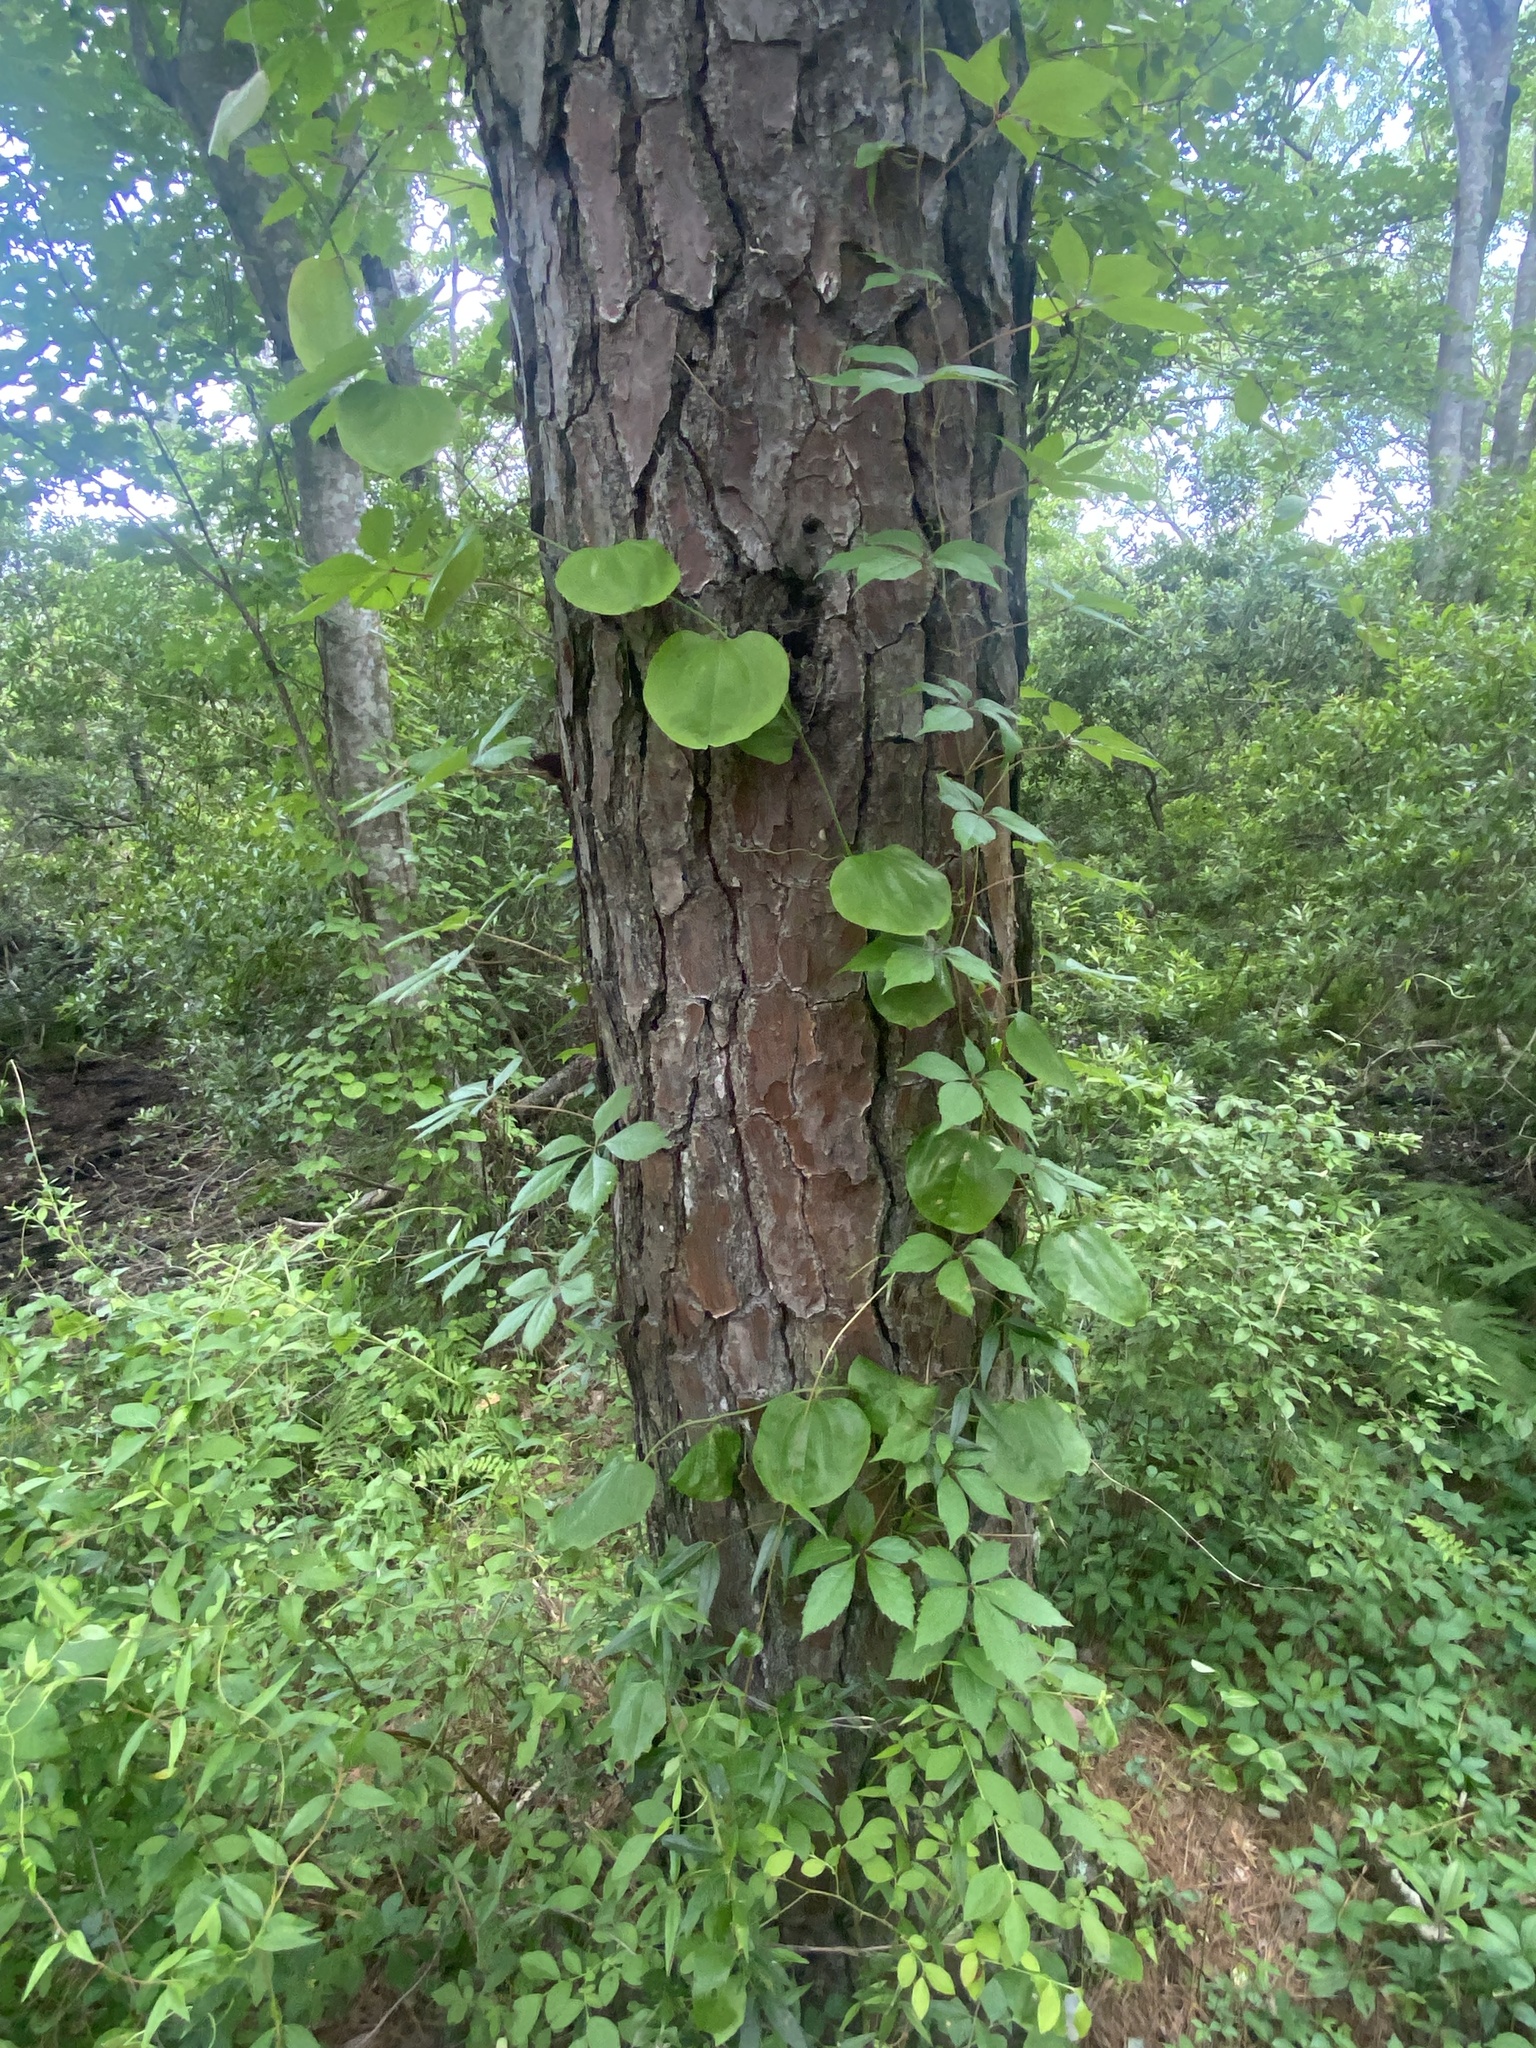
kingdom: Plantae
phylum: Tracheophyta
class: Liliopsida
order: Liliales
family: Smilacaceae
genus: Smilax
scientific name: Smilax rotundifolia
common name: Bullbriar
